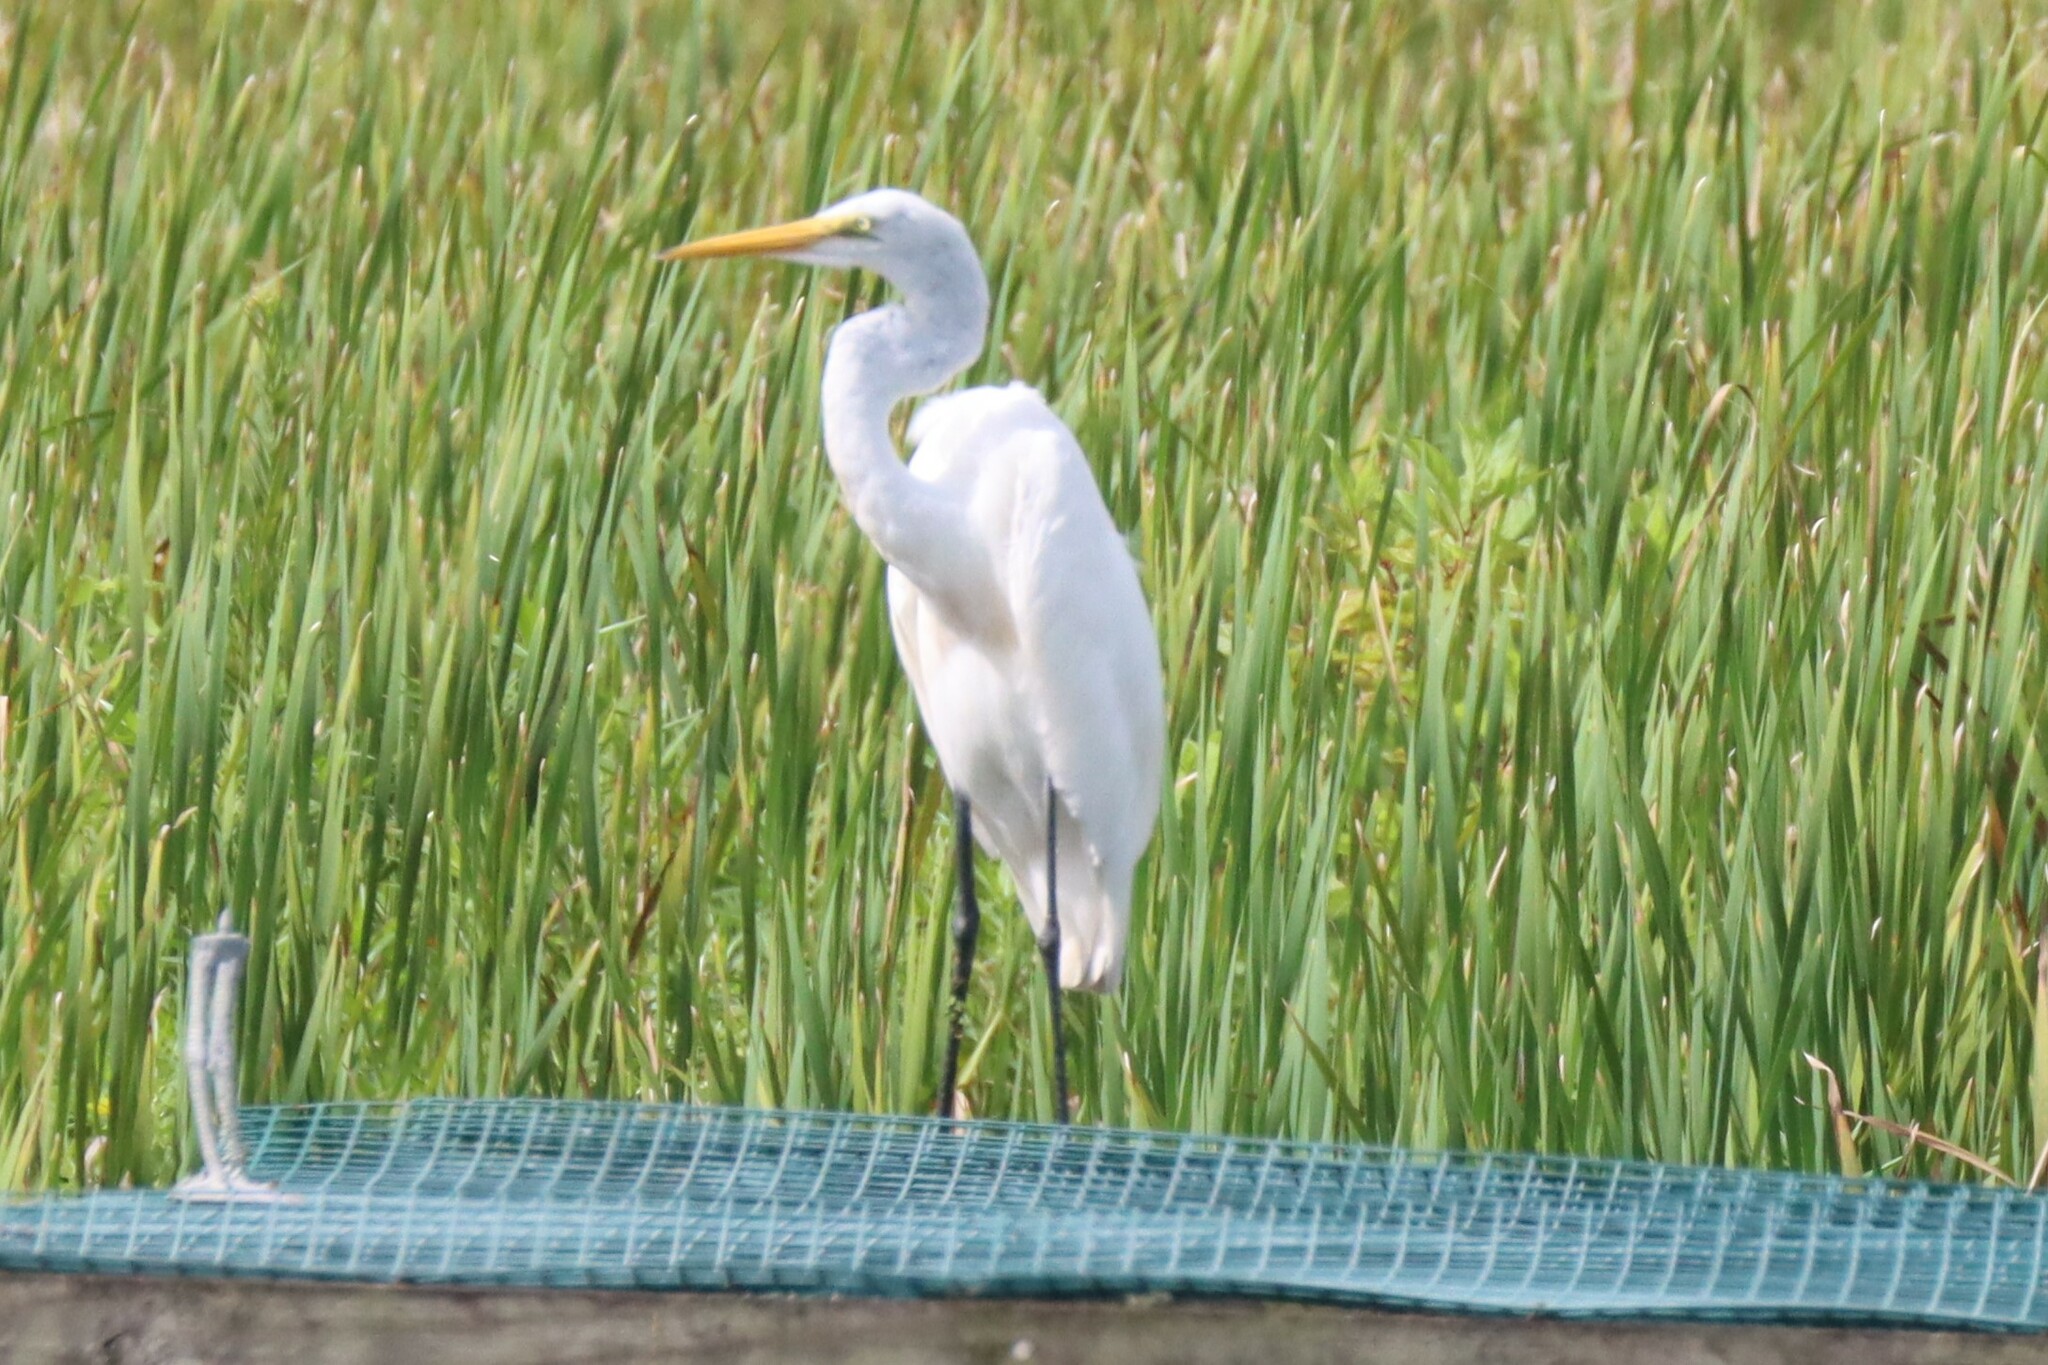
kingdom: Animalia
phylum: Chordata
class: Aves
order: Pelecaniformes
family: Ardeidae
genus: Ardea
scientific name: Ardea alba
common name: Great egret
